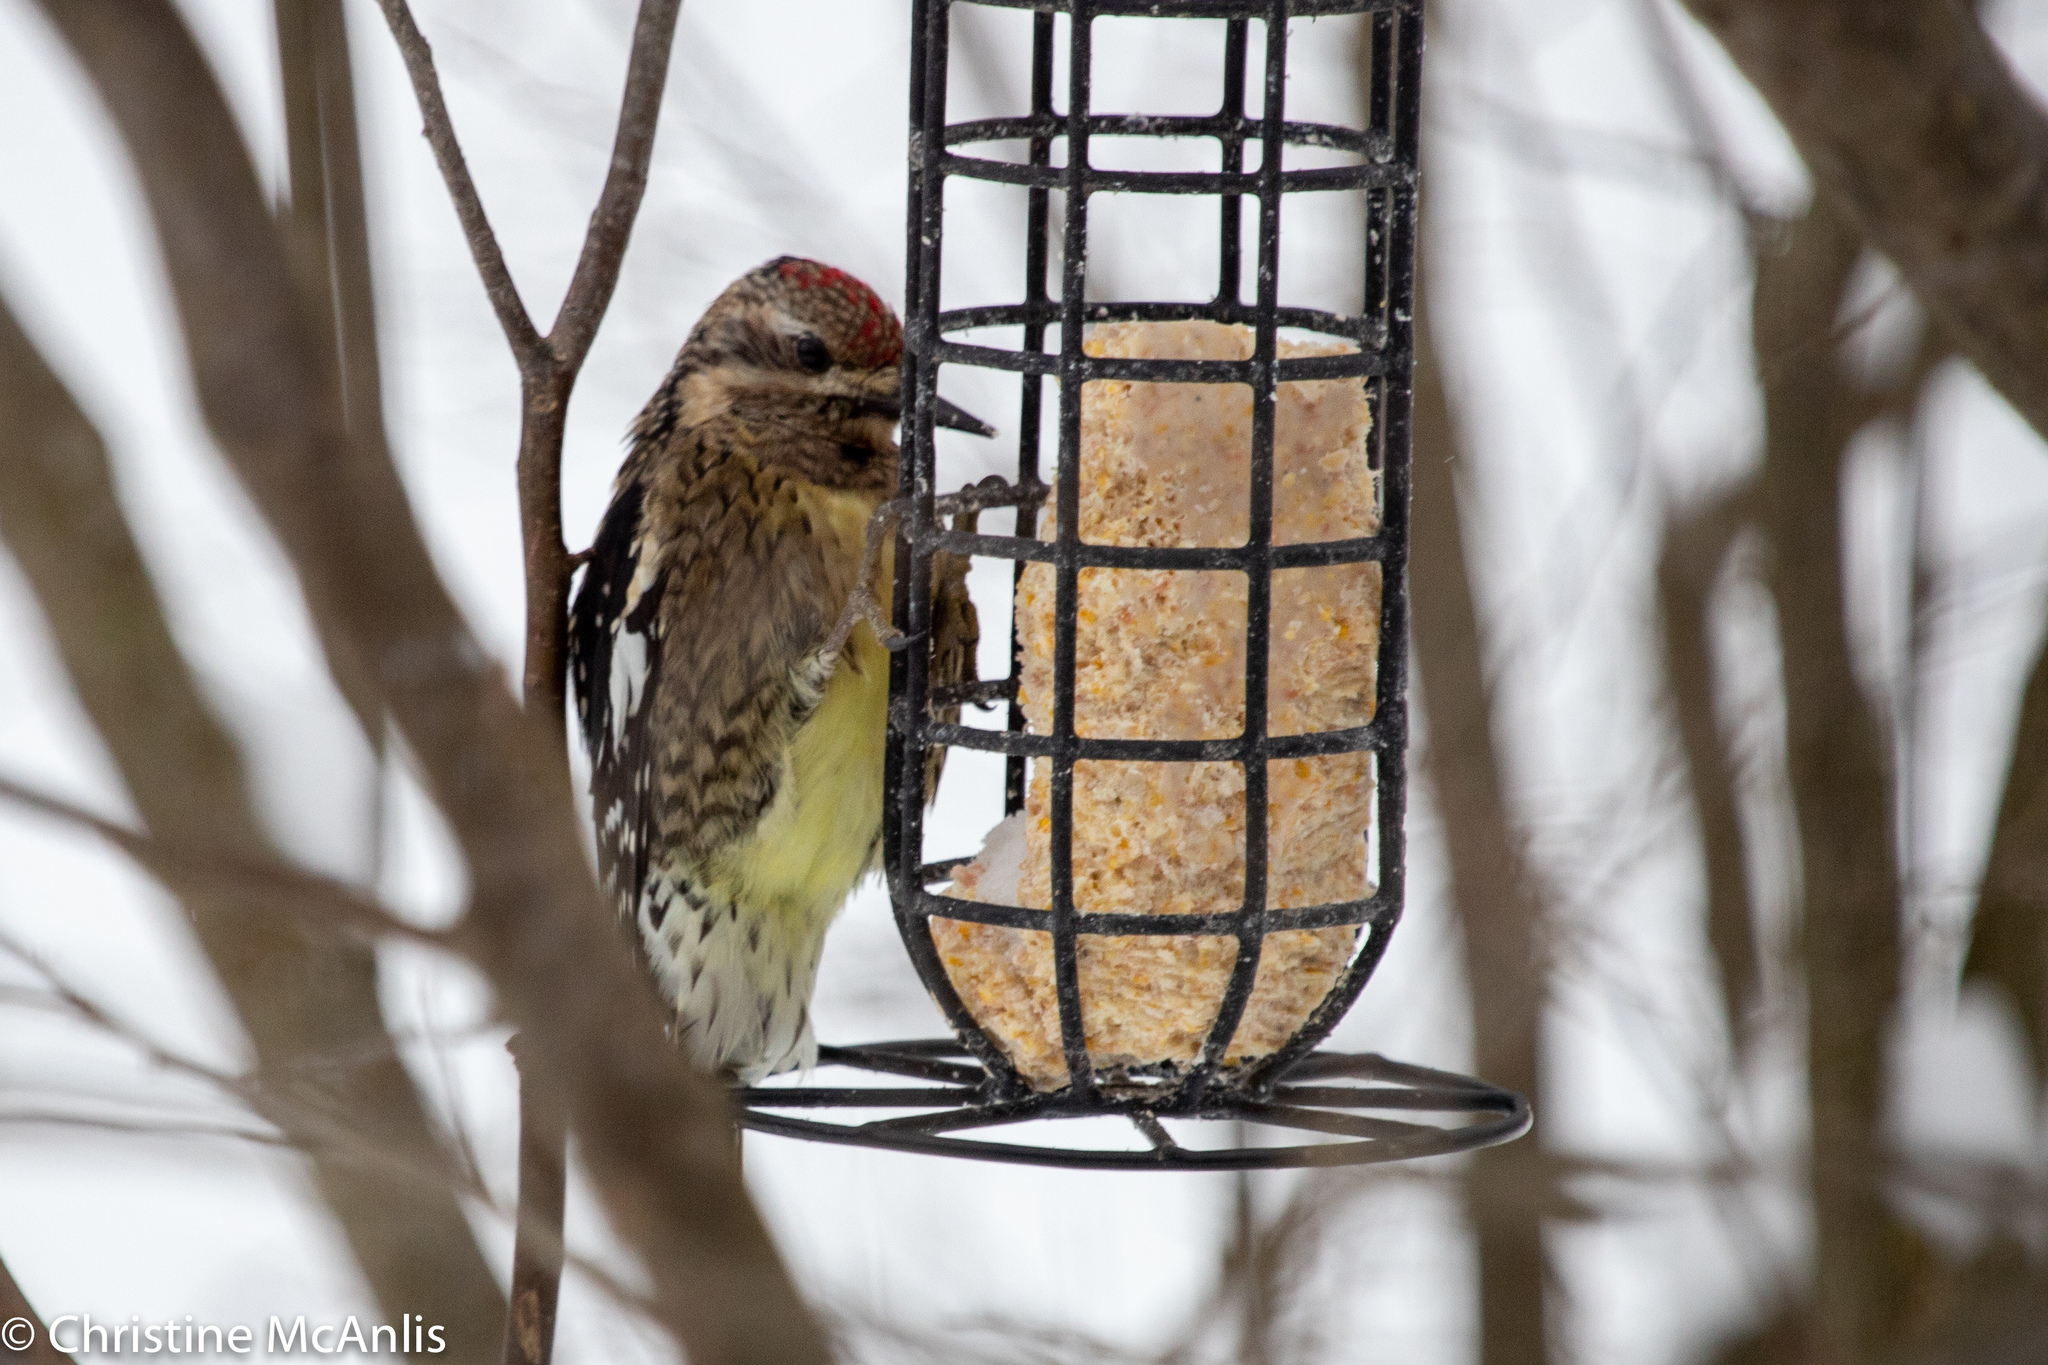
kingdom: Animalia
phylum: Chordata
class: Aves
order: Piciformes
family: Picidae
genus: Sphyrapicus
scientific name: Sphyrapicus varius
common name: Yellow-bellied sapsucker
